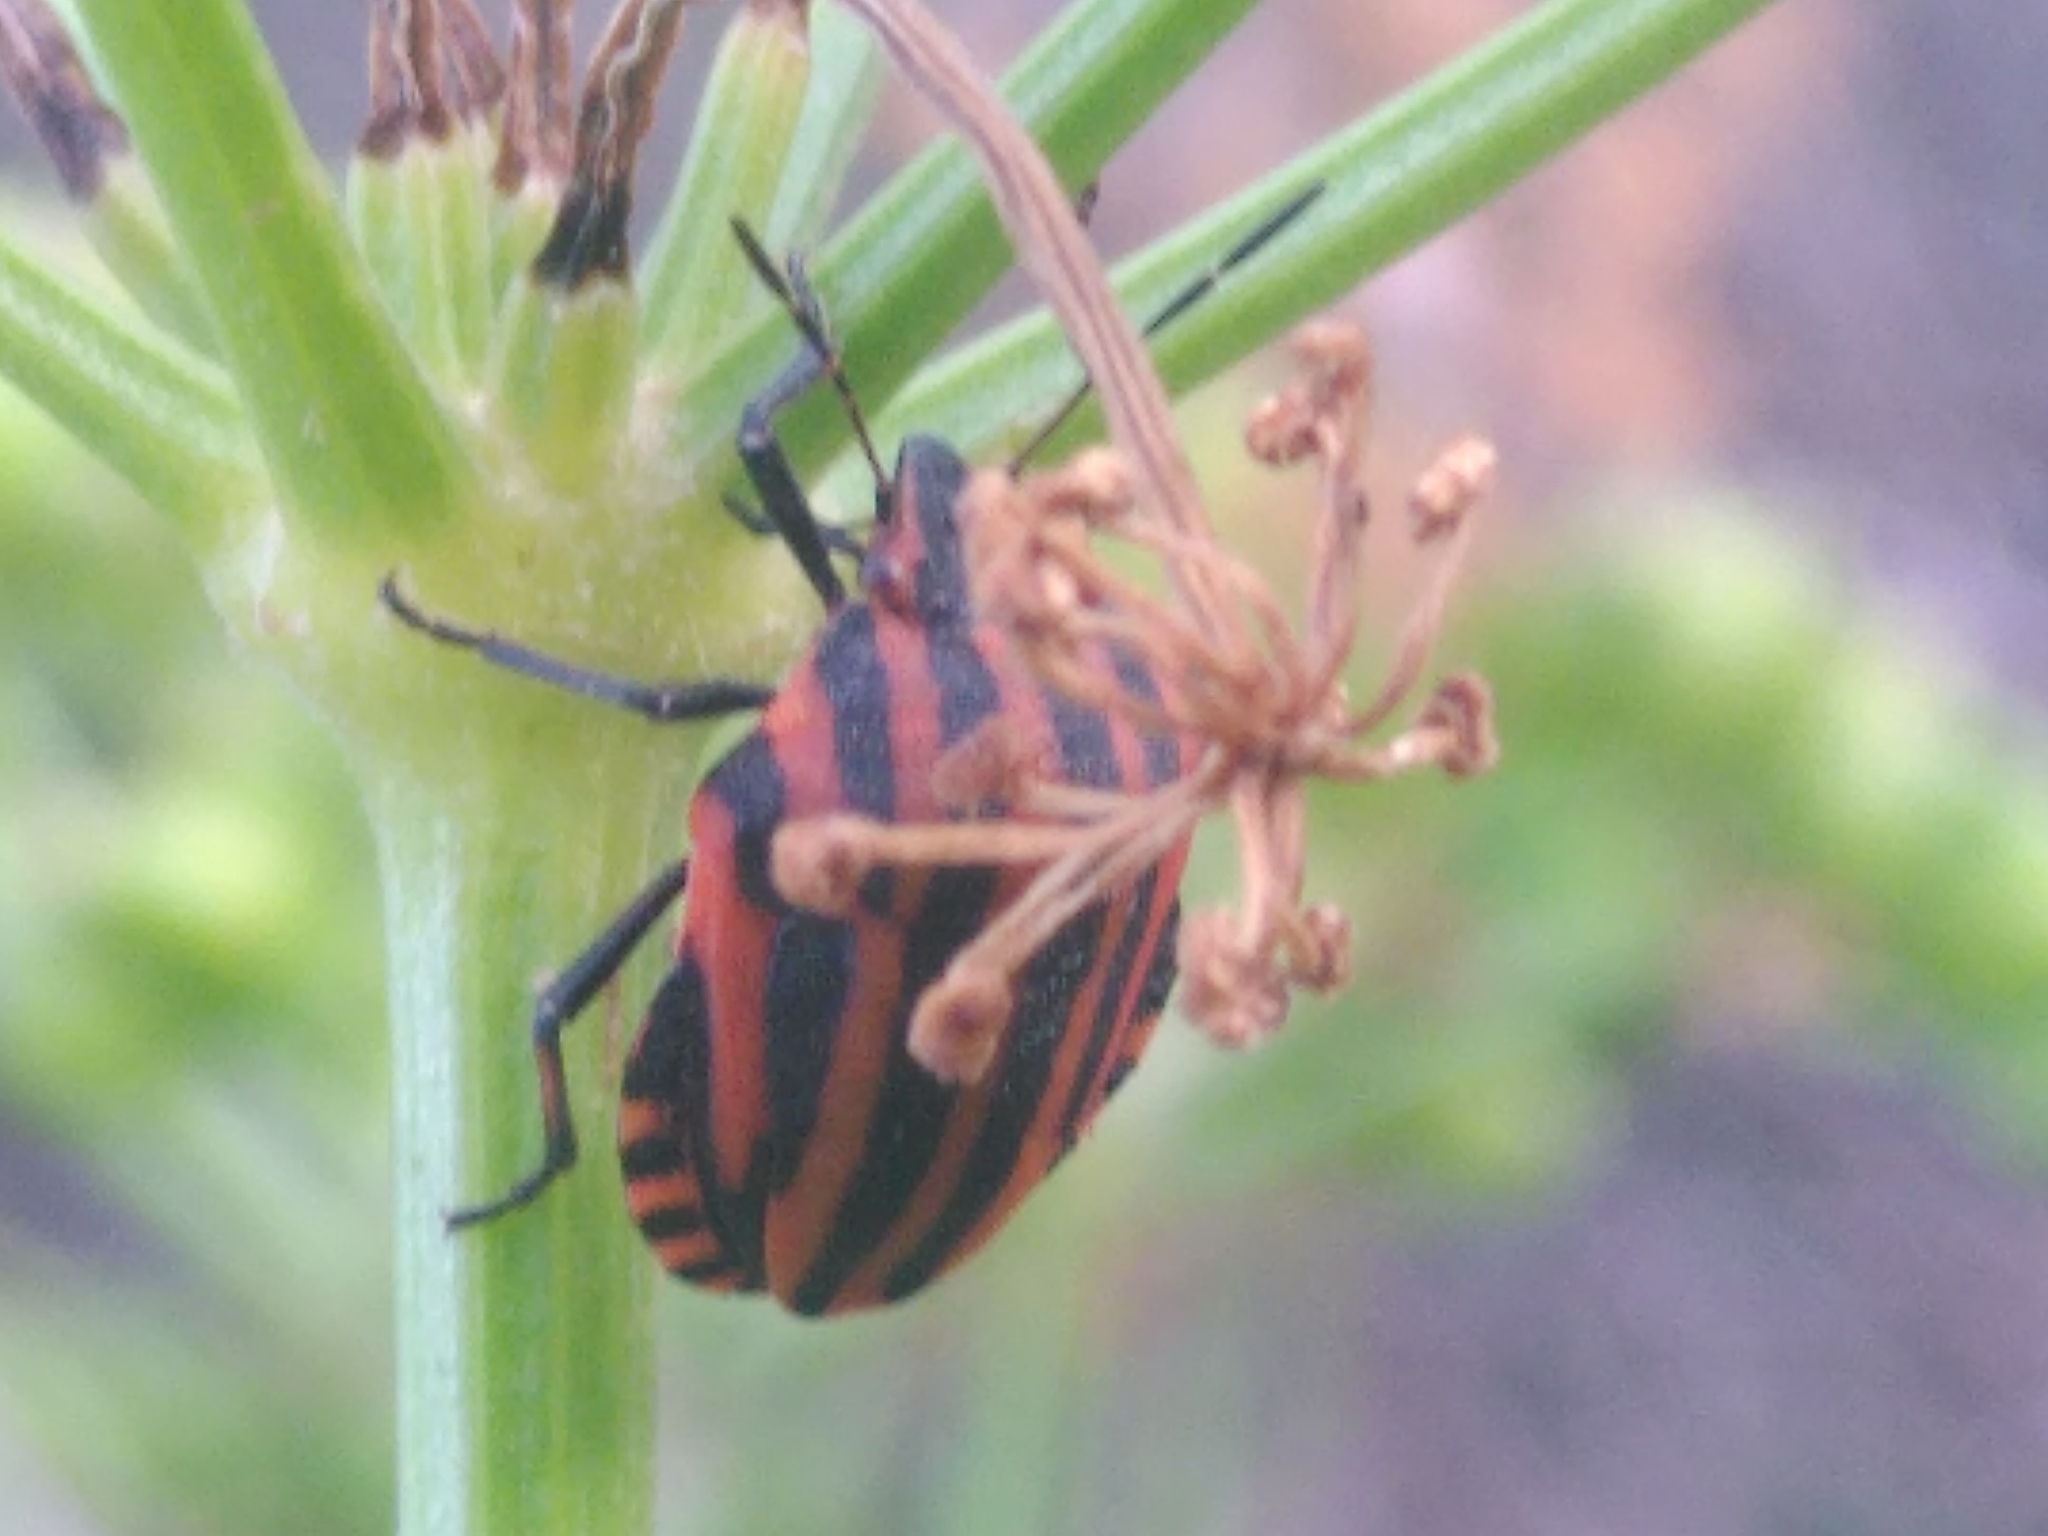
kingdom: Animalia
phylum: Arthropoda
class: Insecta
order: Hemiptera
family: Pentatomidae
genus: Graphosoma
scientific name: Graphosoma italicum
